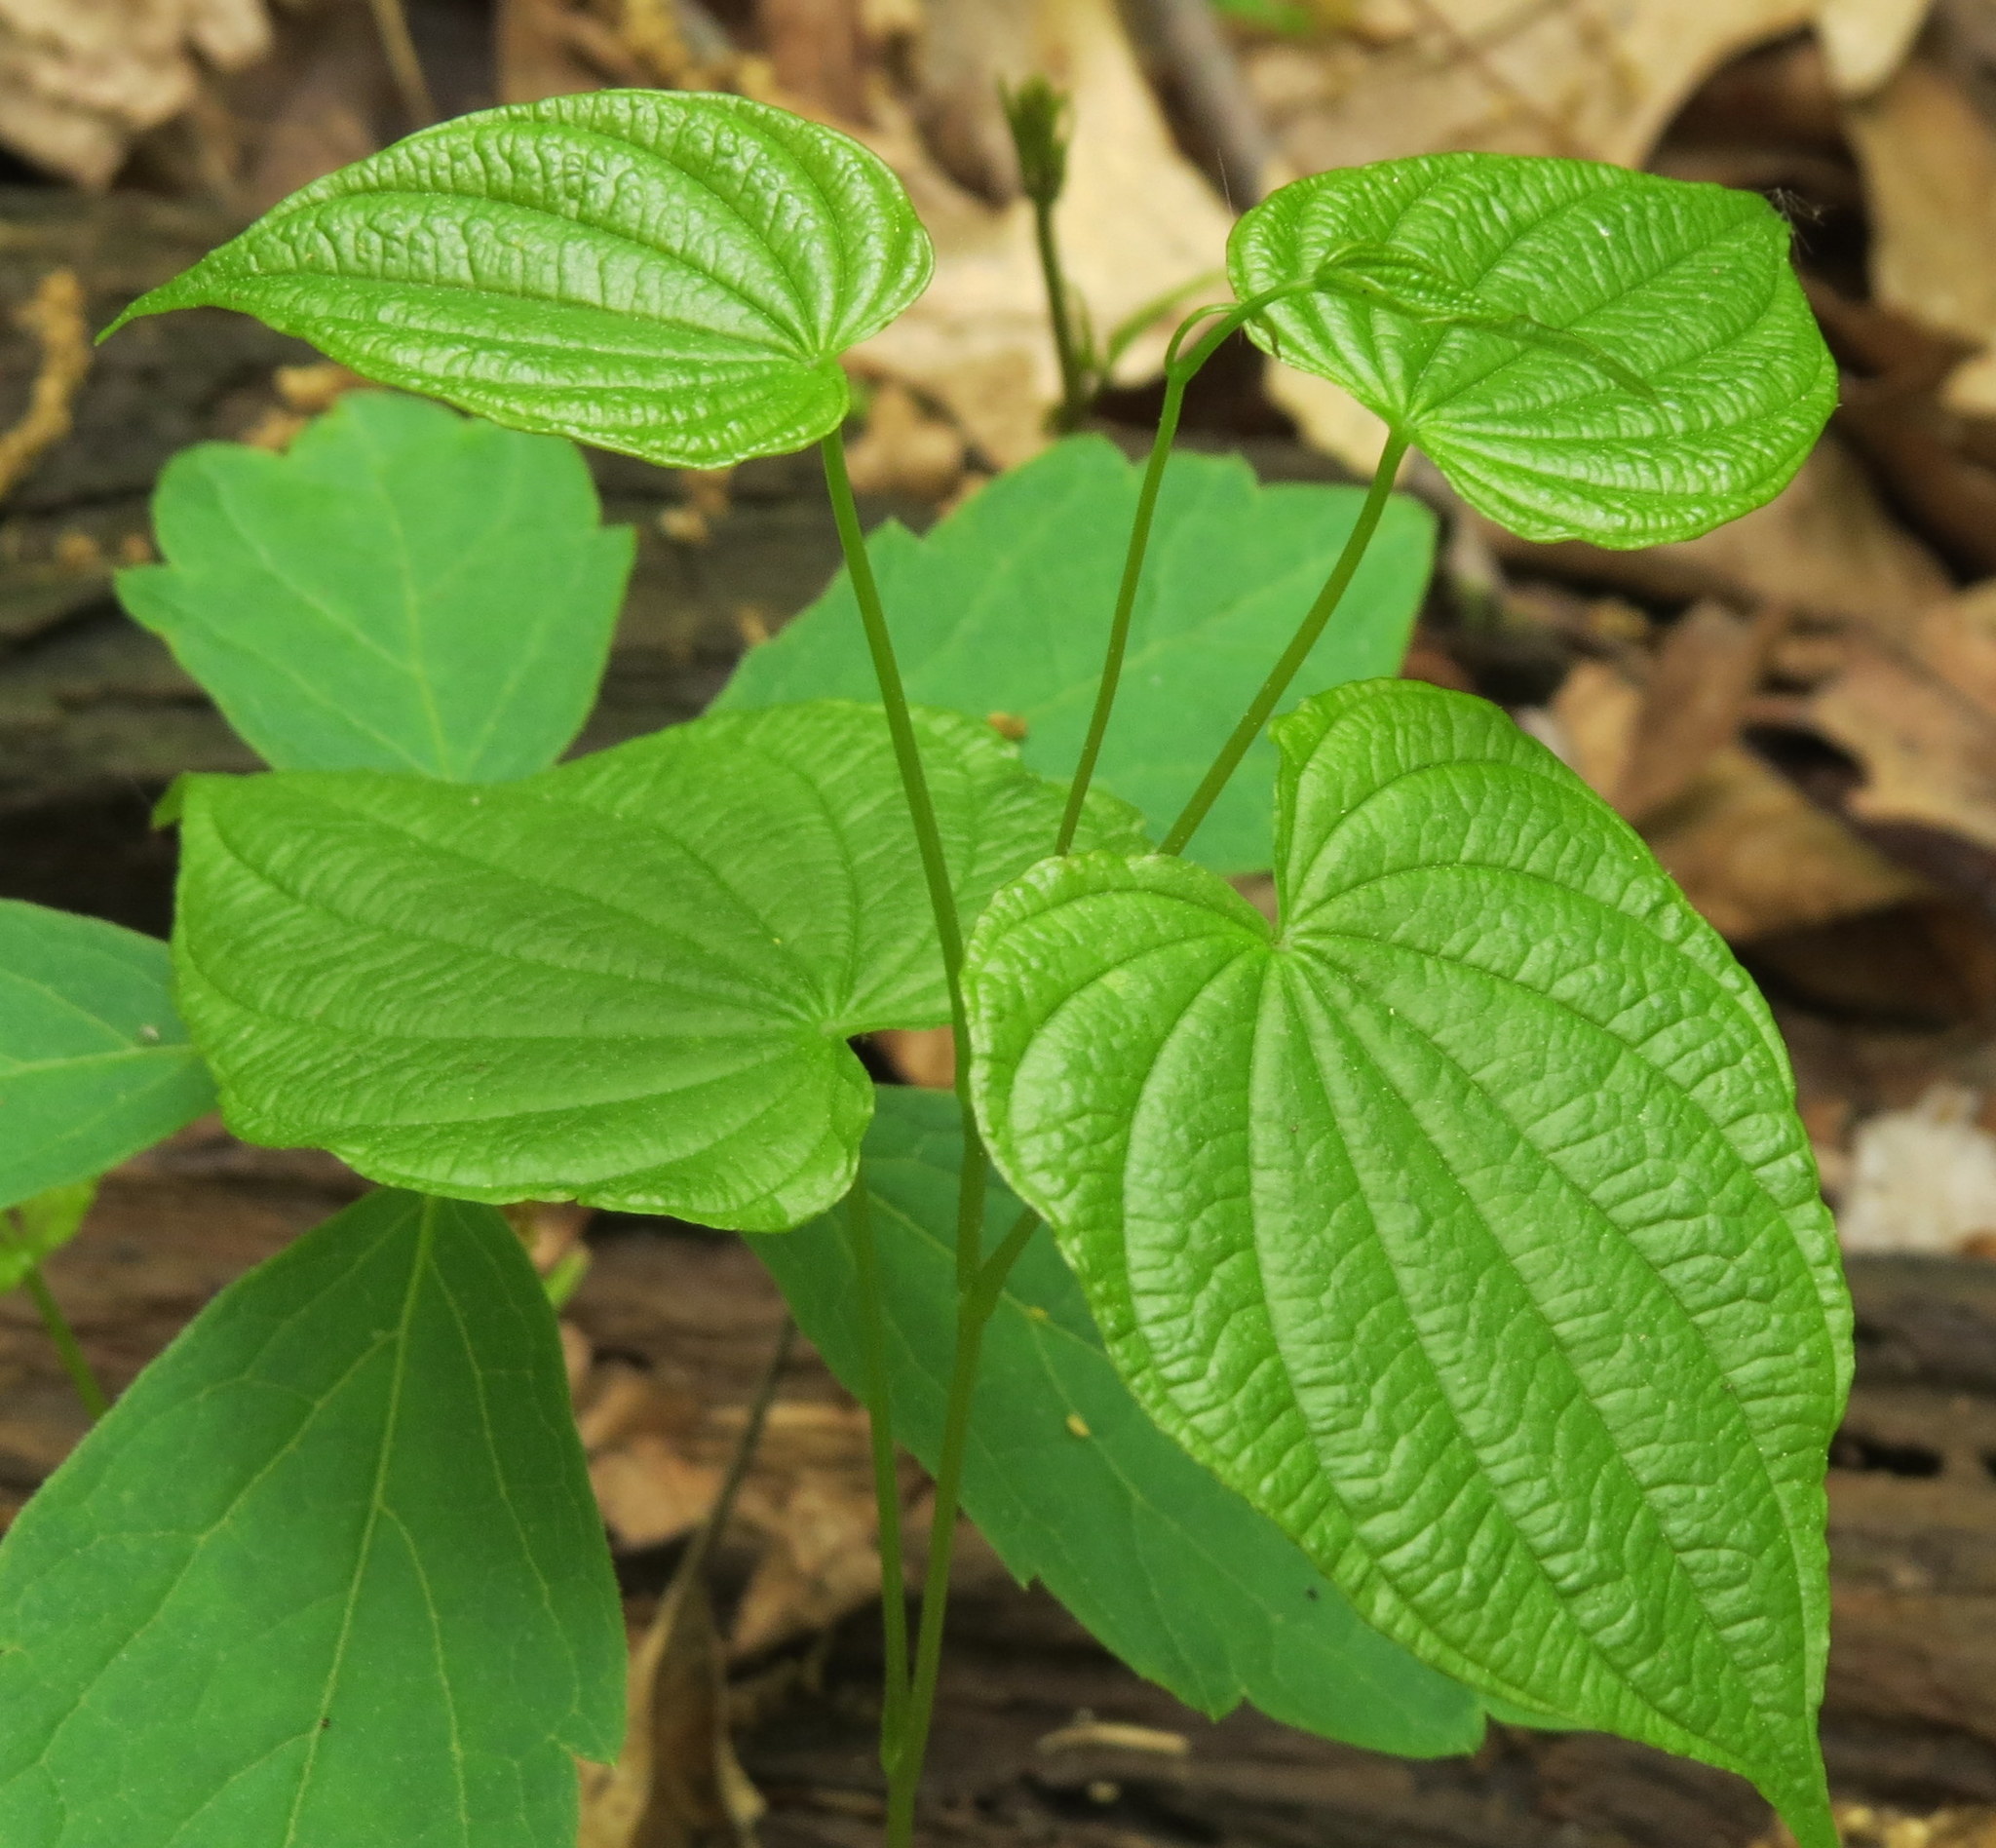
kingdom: Plantae
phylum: Tracheophyta
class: Liliopsida
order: Dioscoreales
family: Dioscoreaceae
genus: Dioscorea
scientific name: Dioscorea villosa
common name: Wild yam
